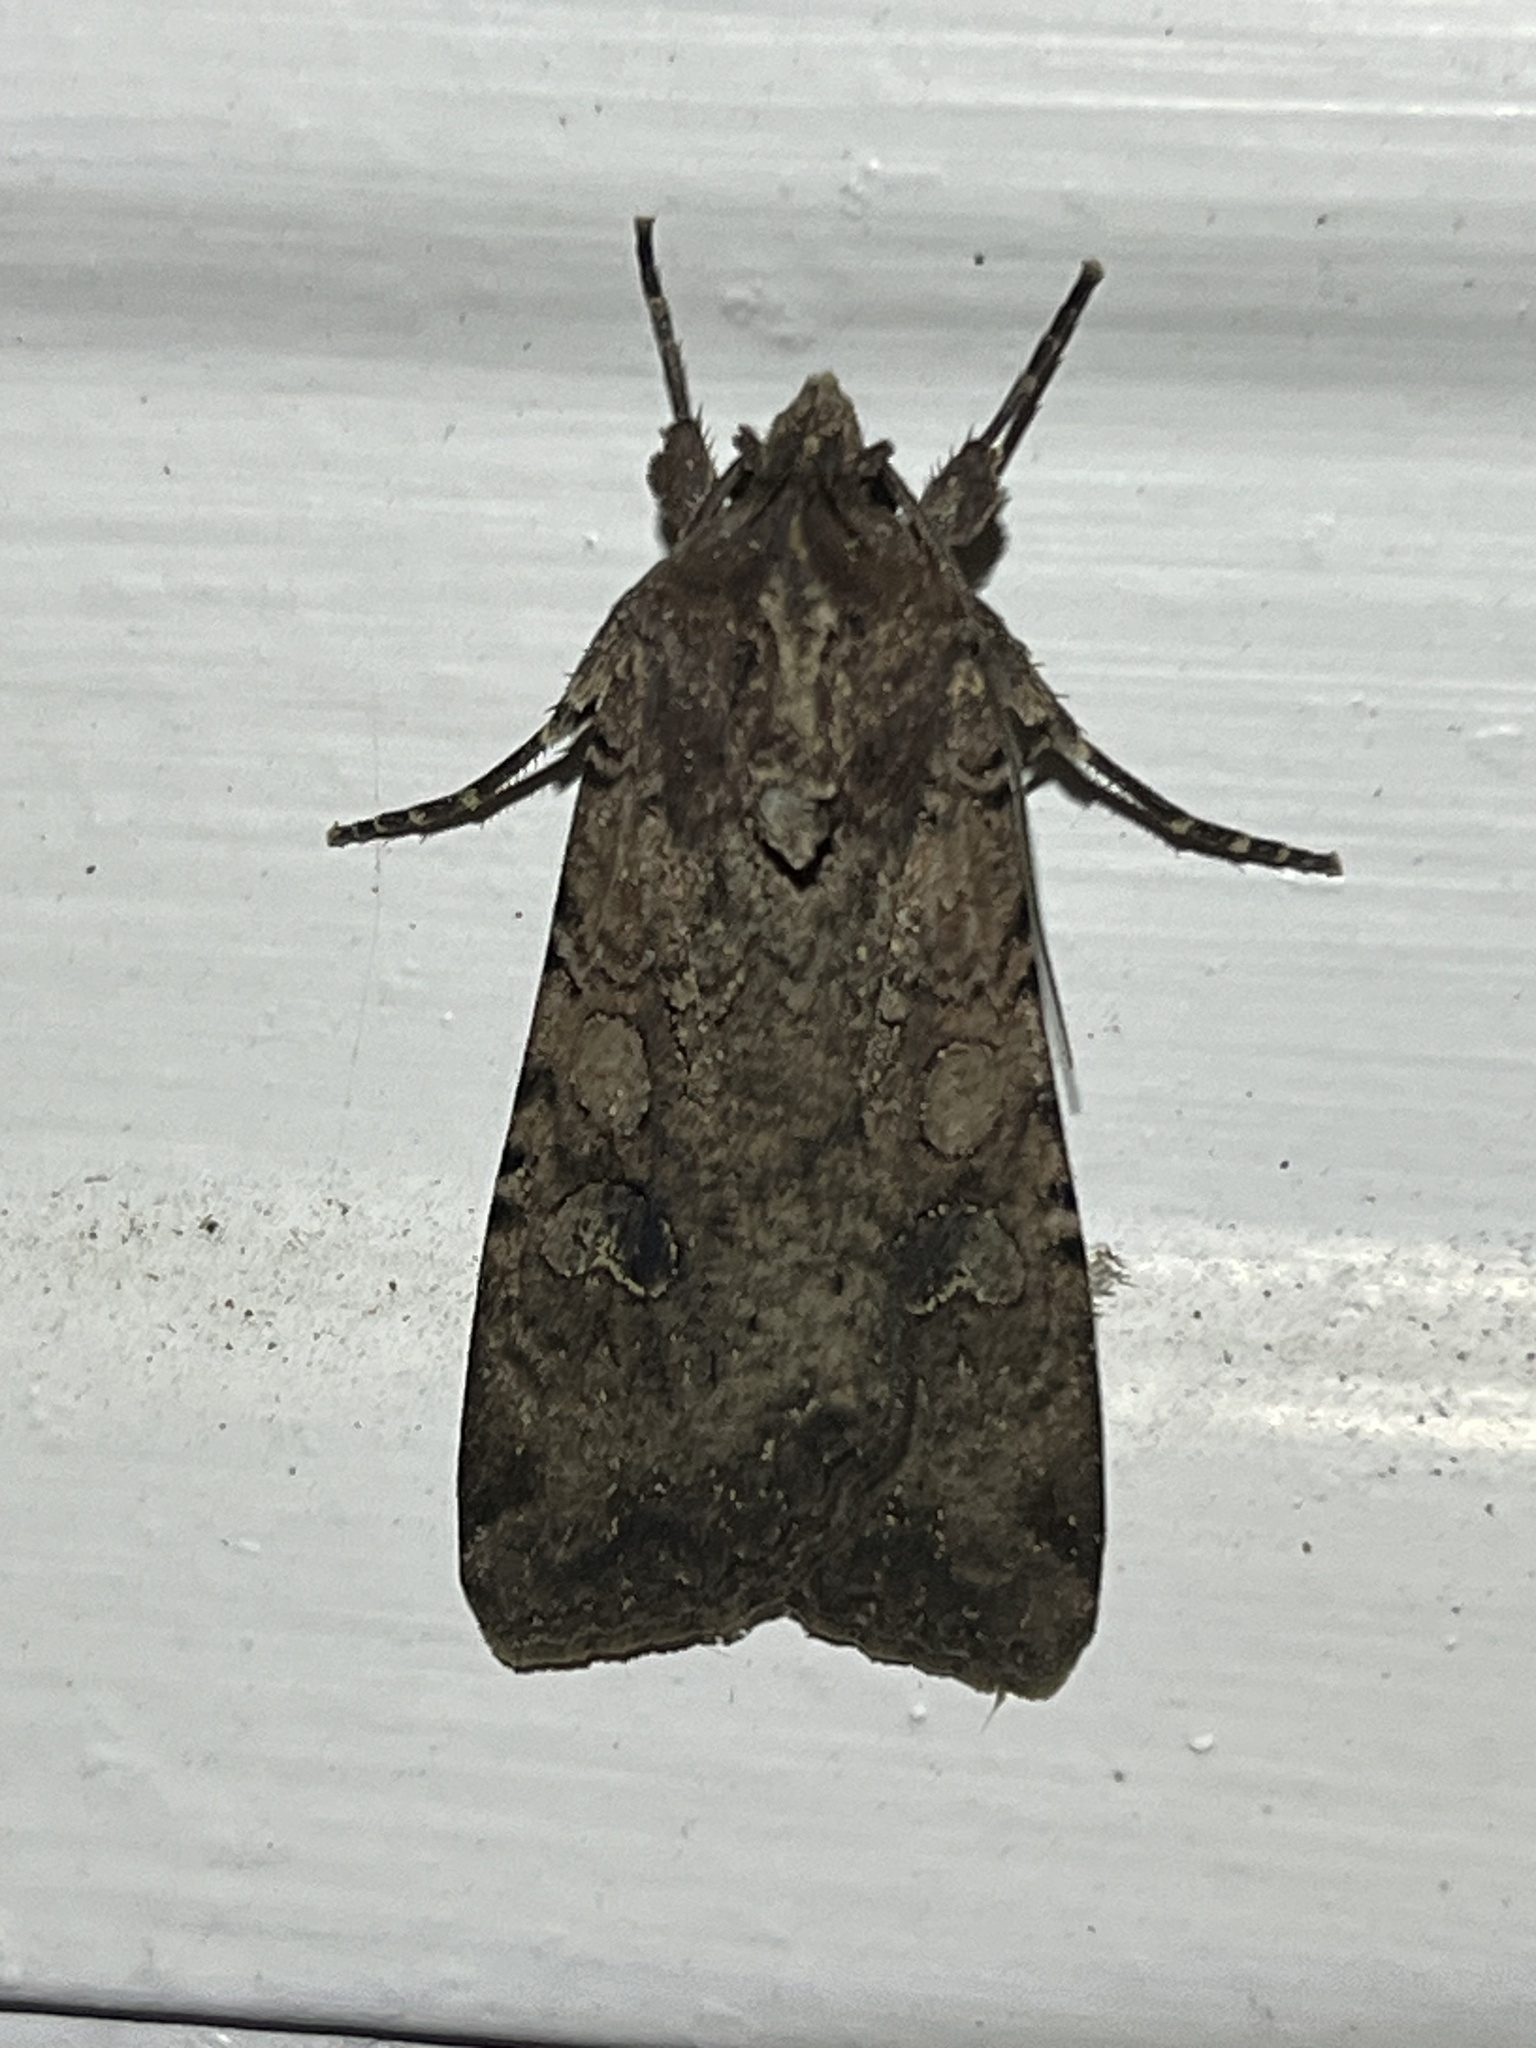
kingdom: Animalia
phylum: Arthropoda
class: Insecta
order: Lepidoptera
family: Noctuidae
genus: Peridroma
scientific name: Peridroma saucia
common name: Pearly underwing
